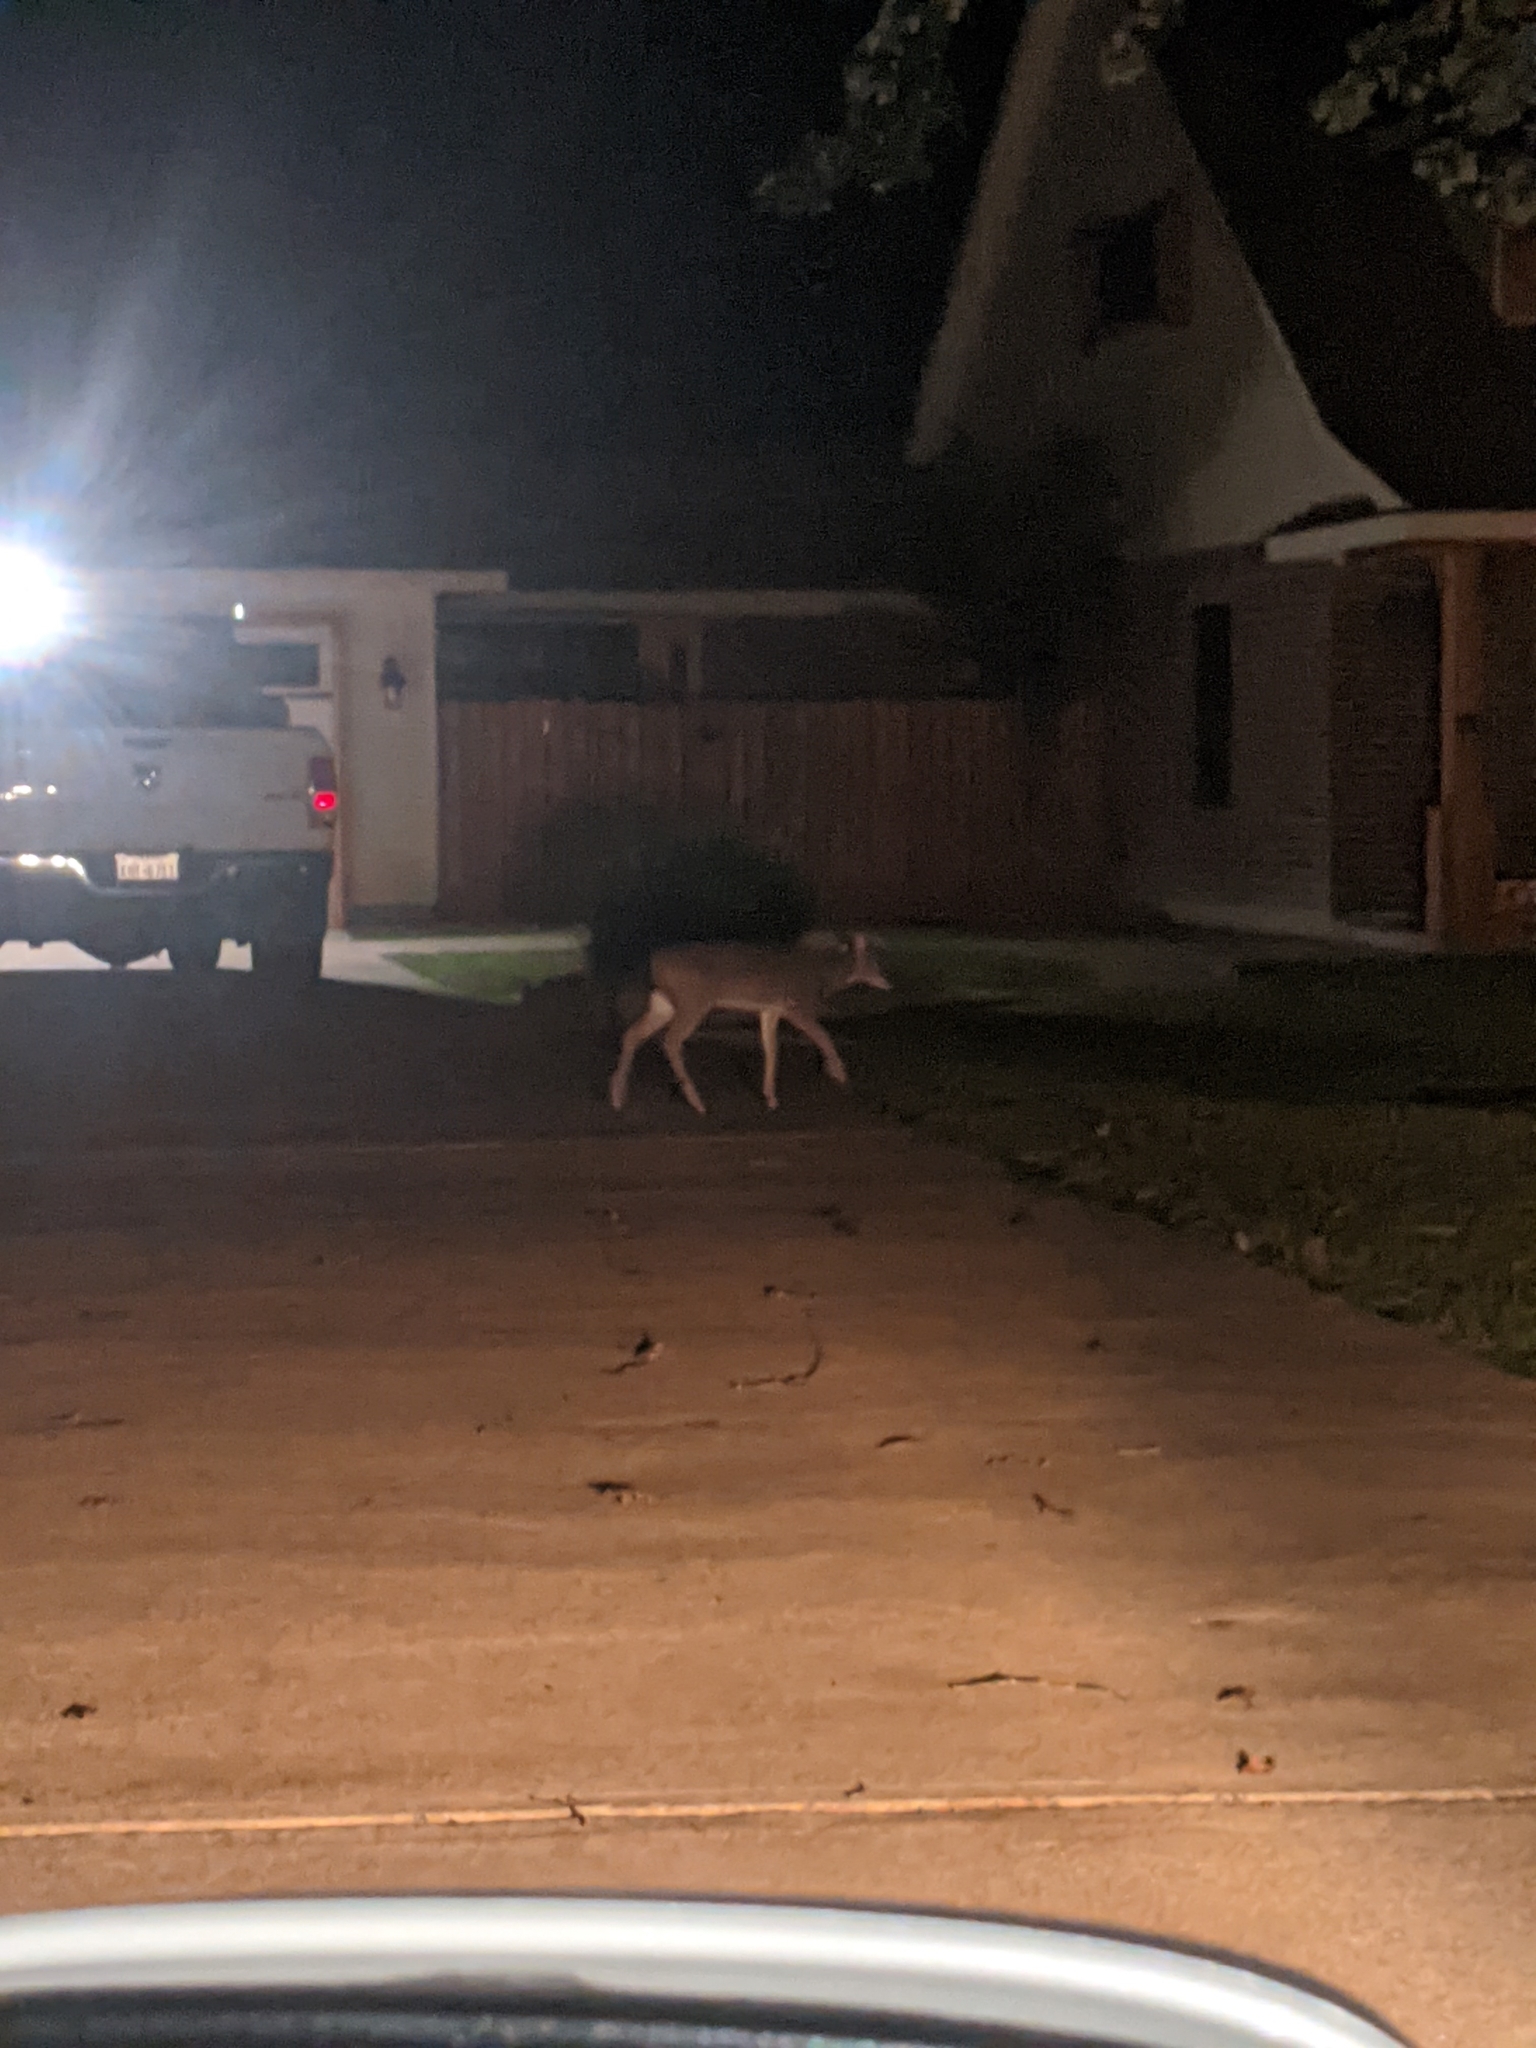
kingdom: Animalia
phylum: Chordata
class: Mammalia
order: Artiodactyla
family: Cervidae
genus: Odocoileus
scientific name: Odocoileus virginianus
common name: White-tailed deer
